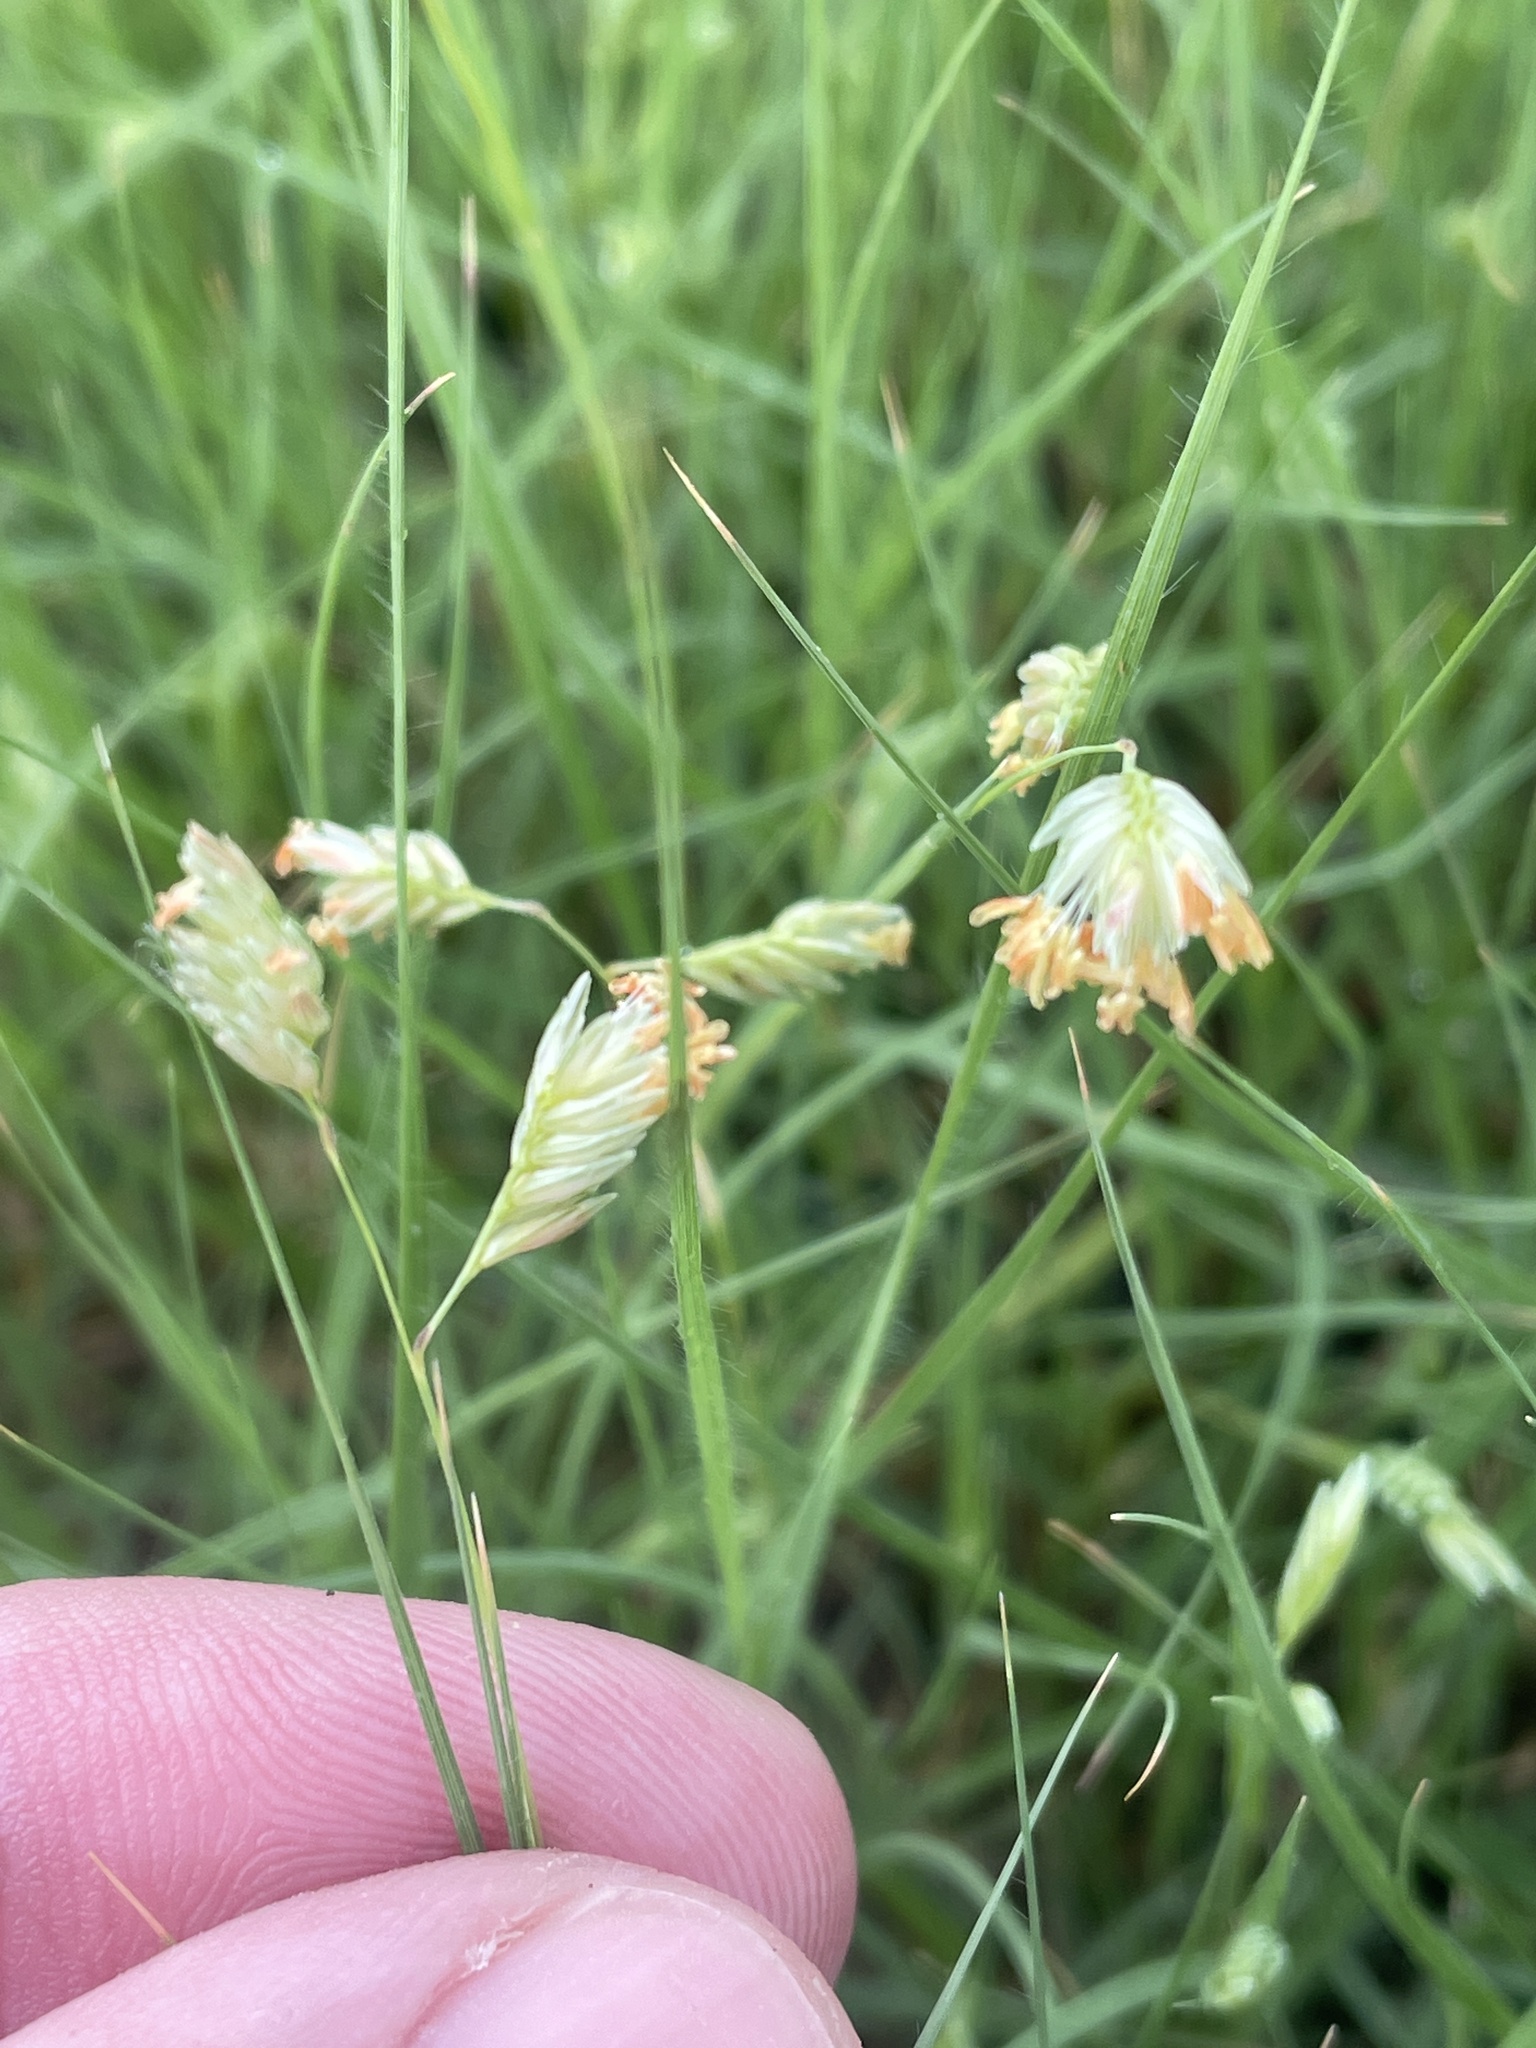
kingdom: Plantae
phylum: Tracheophyta
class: Liliopsida
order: Poales
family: Poaceae
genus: Bouteloua
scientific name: Bouteloua dactyloides
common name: Buffalo grass
